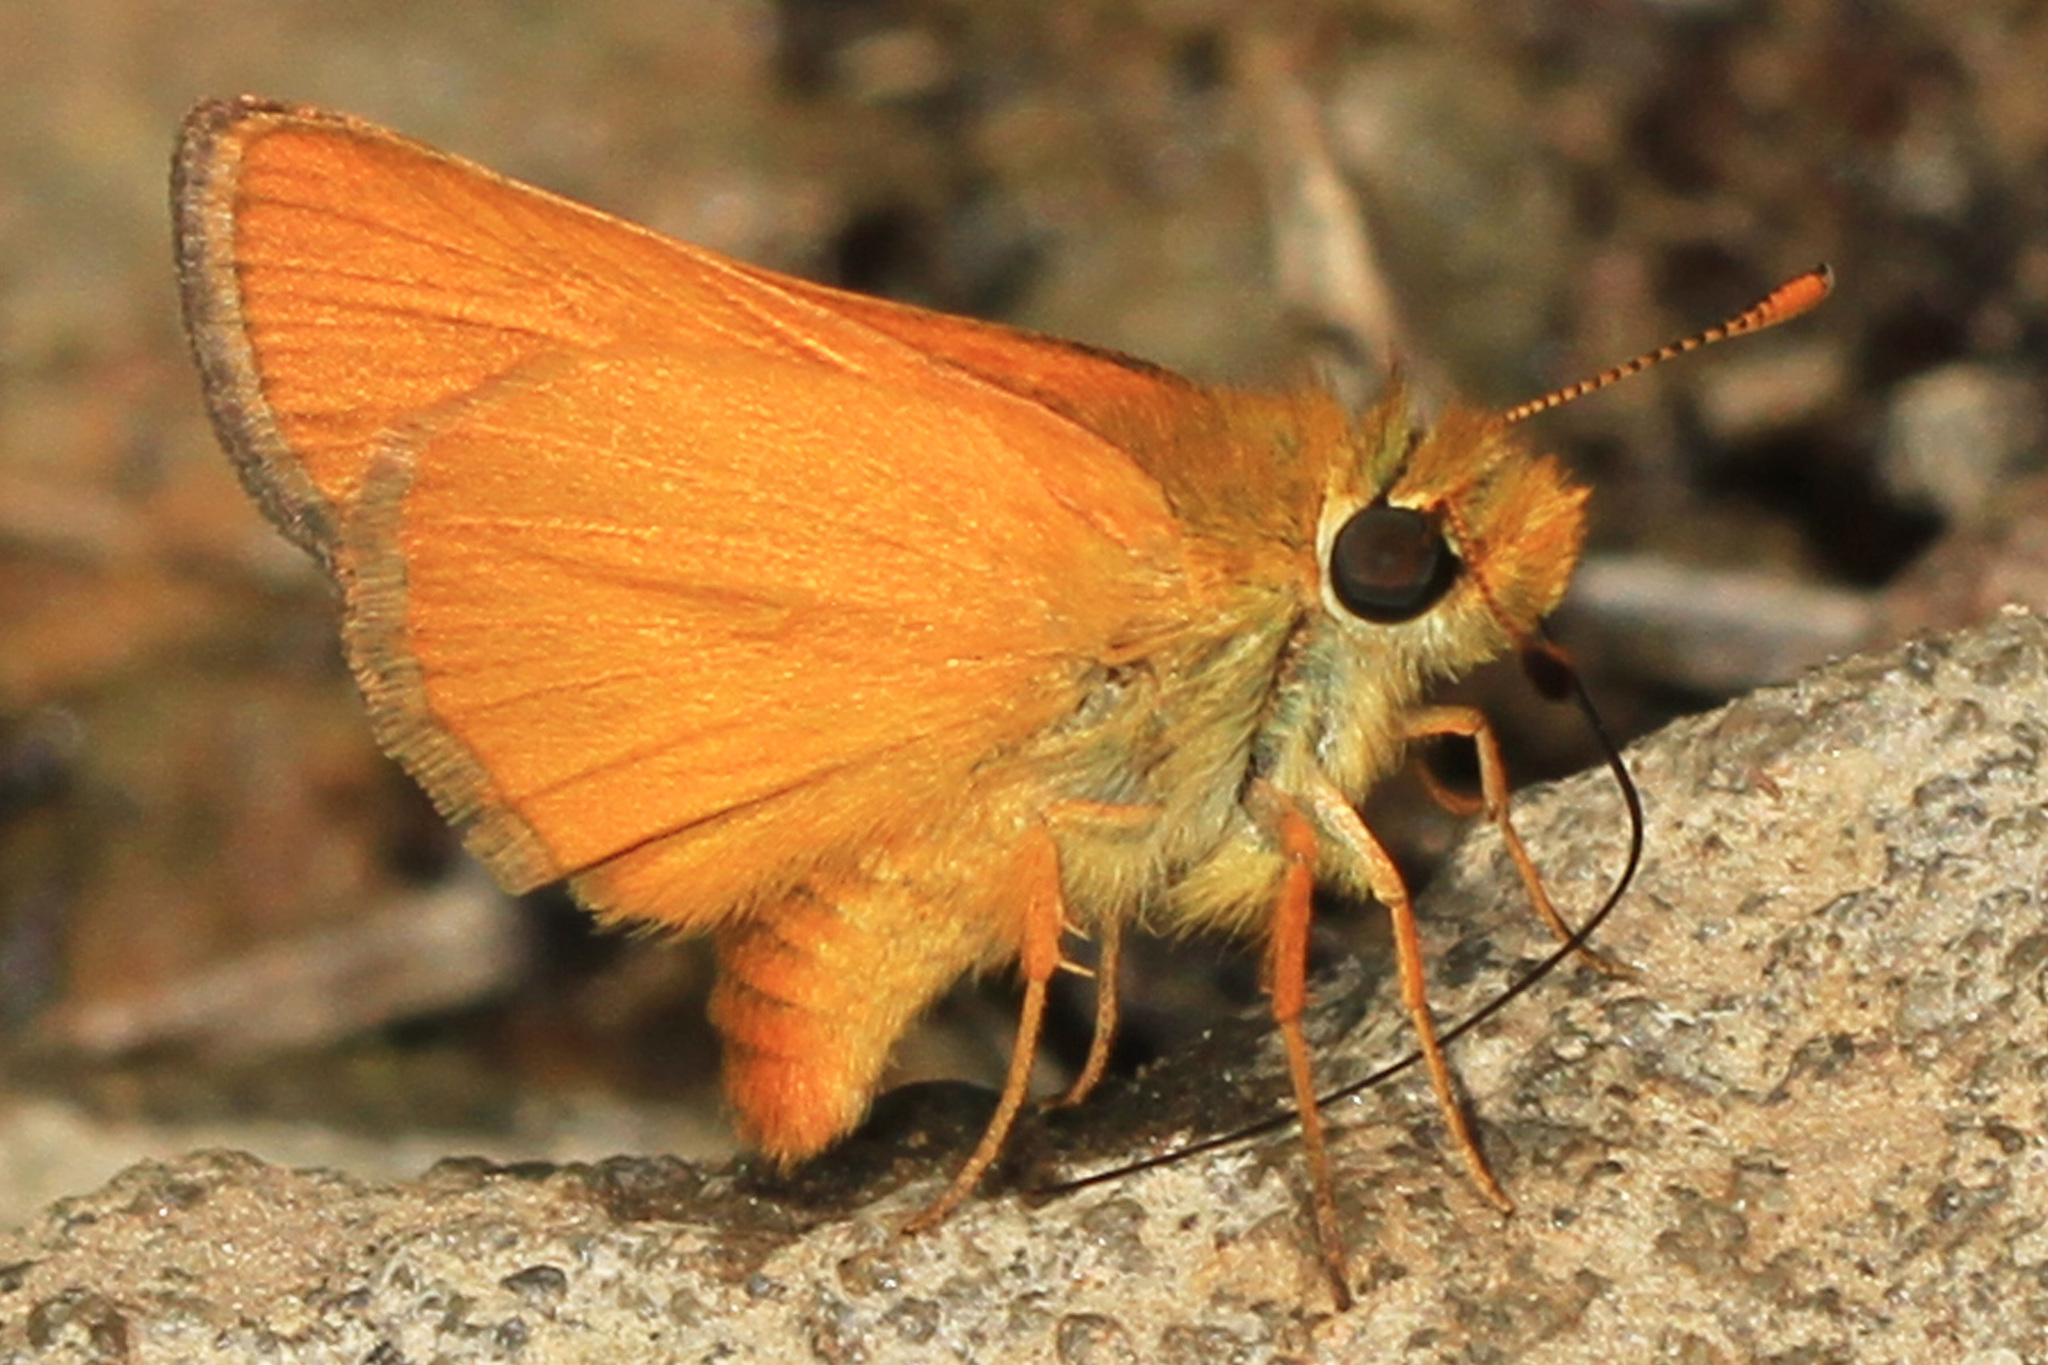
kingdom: Animalia
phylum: Arthropoda
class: Insecta
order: Lepidoptera
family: Hesperiidae
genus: Ochlodes
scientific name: Ochlodes agricola
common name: Rural skipper
